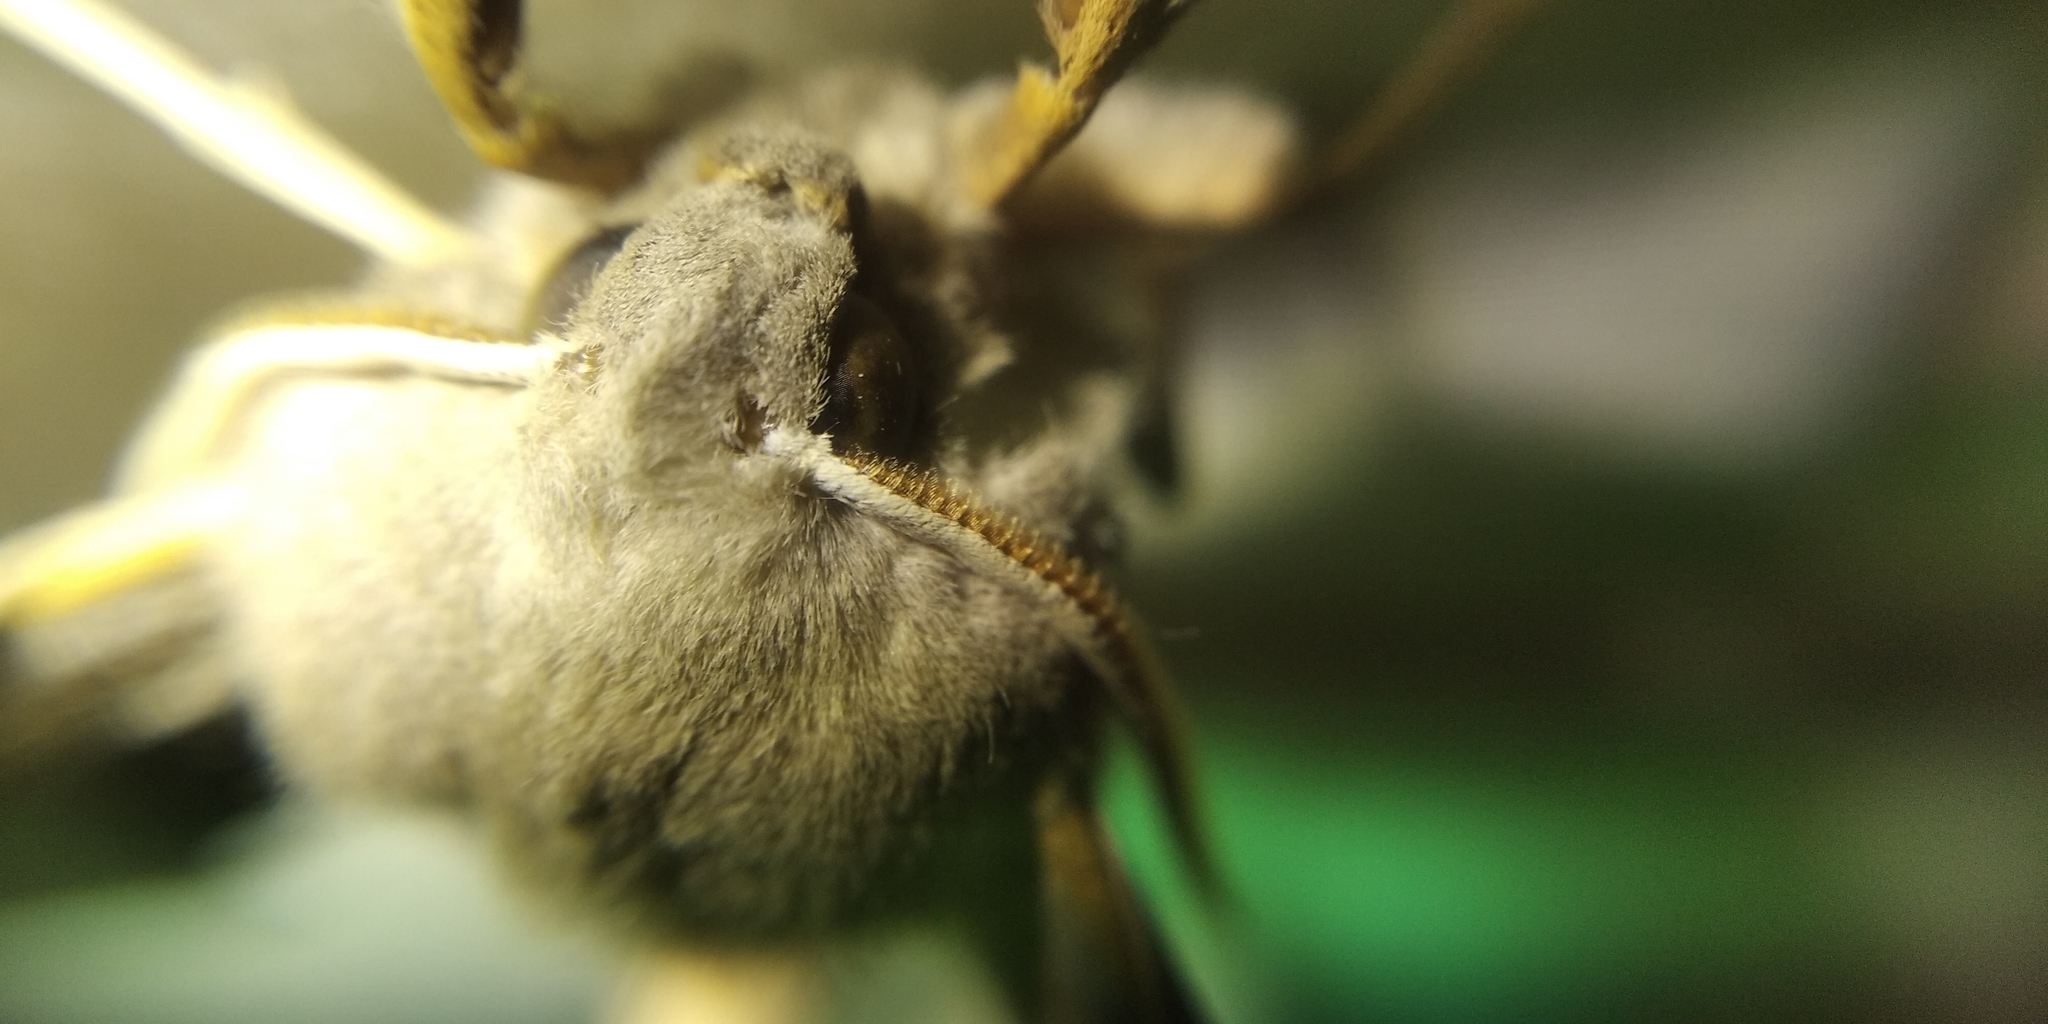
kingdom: Animalia
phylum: Arthropoda
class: Insecta
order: Lepidoptera
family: Sphingidae
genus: Laothoe
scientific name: Laothoe populi
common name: Poplar hawk-moth
